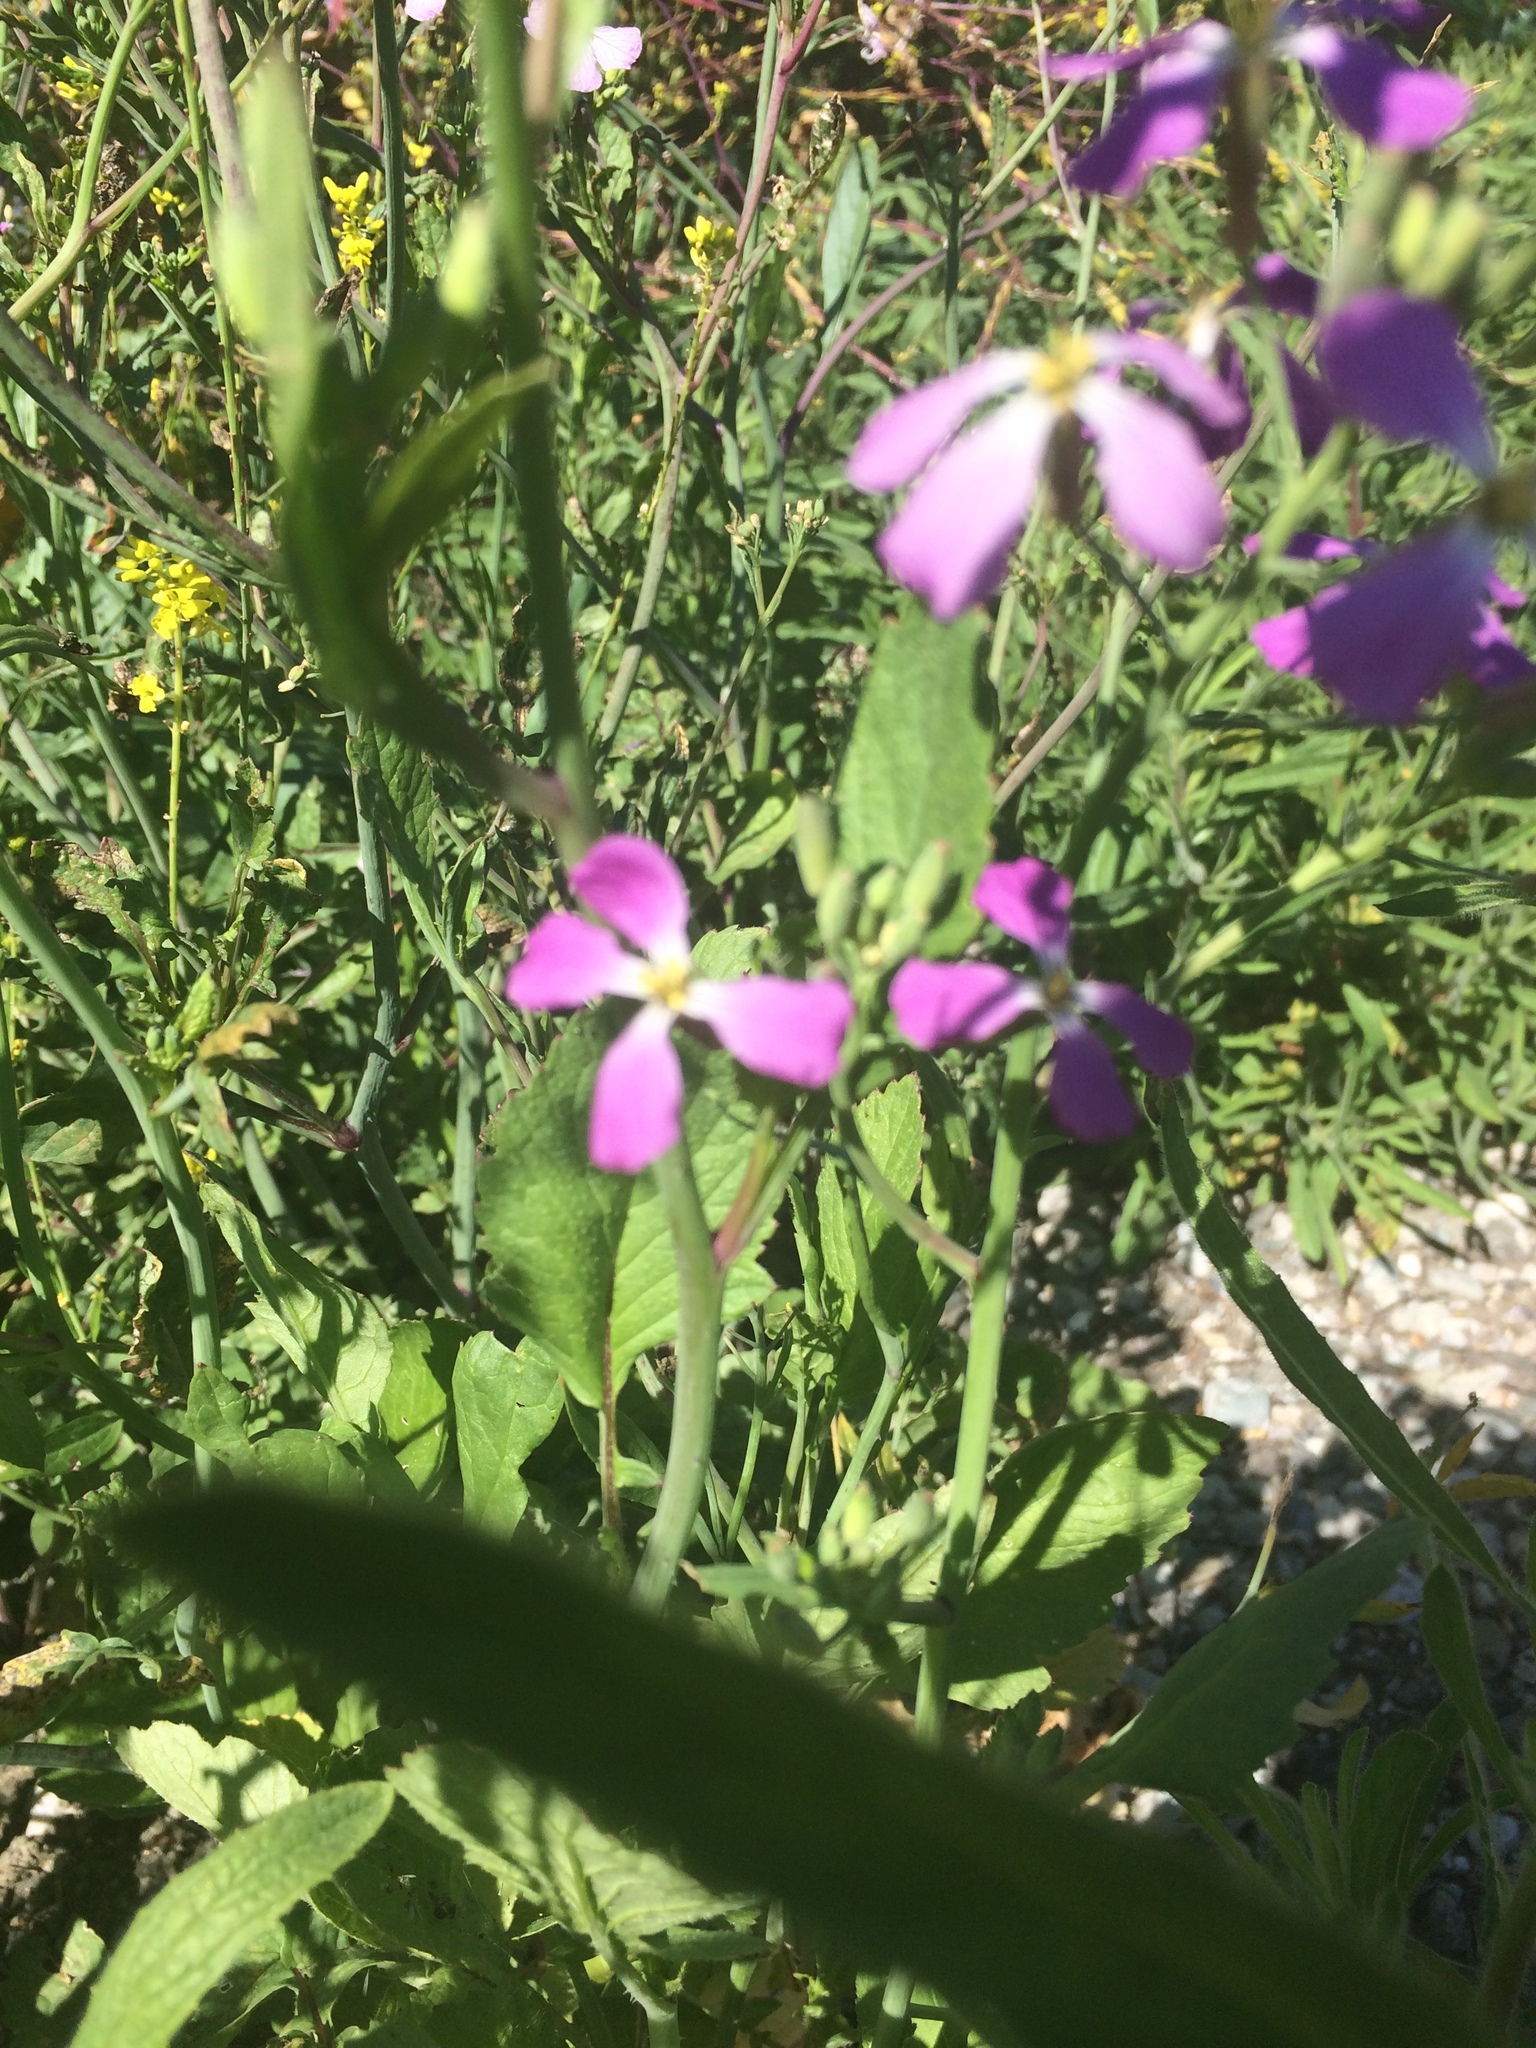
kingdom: Plantae
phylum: Tracheophyta
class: Magnoliopsida
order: Brassicales
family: Brassicaceae
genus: Raphanus
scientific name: Raphanus sativus
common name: Cultivated radish
